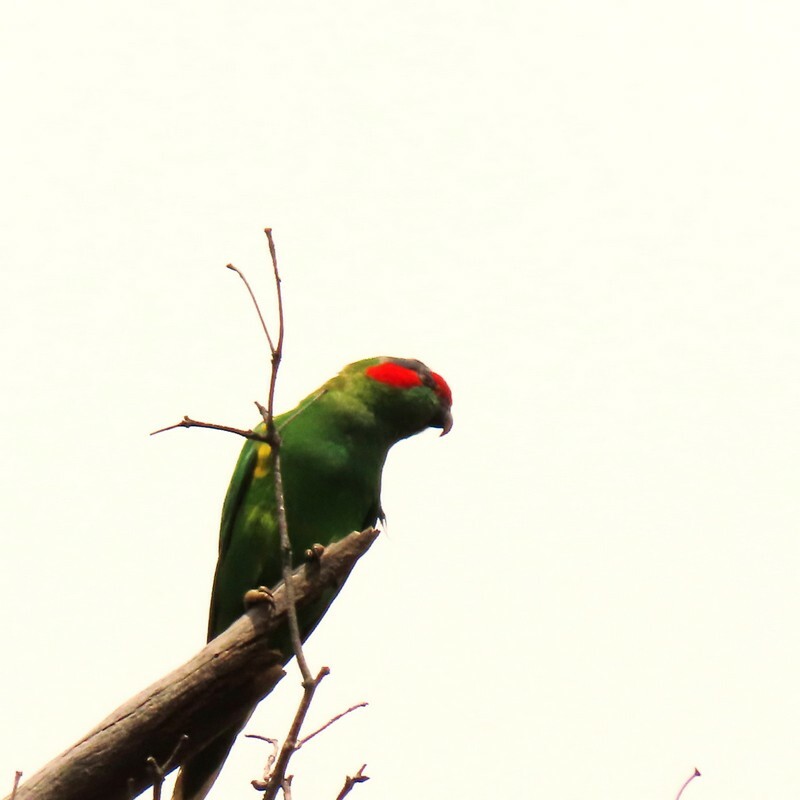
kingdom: Animalia
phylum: Chordata
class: Aves
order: Psittaciformes
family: Psittacidae
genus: Glossopsitta
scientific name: Glossopsitta concinna
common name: Musk lorikeet
